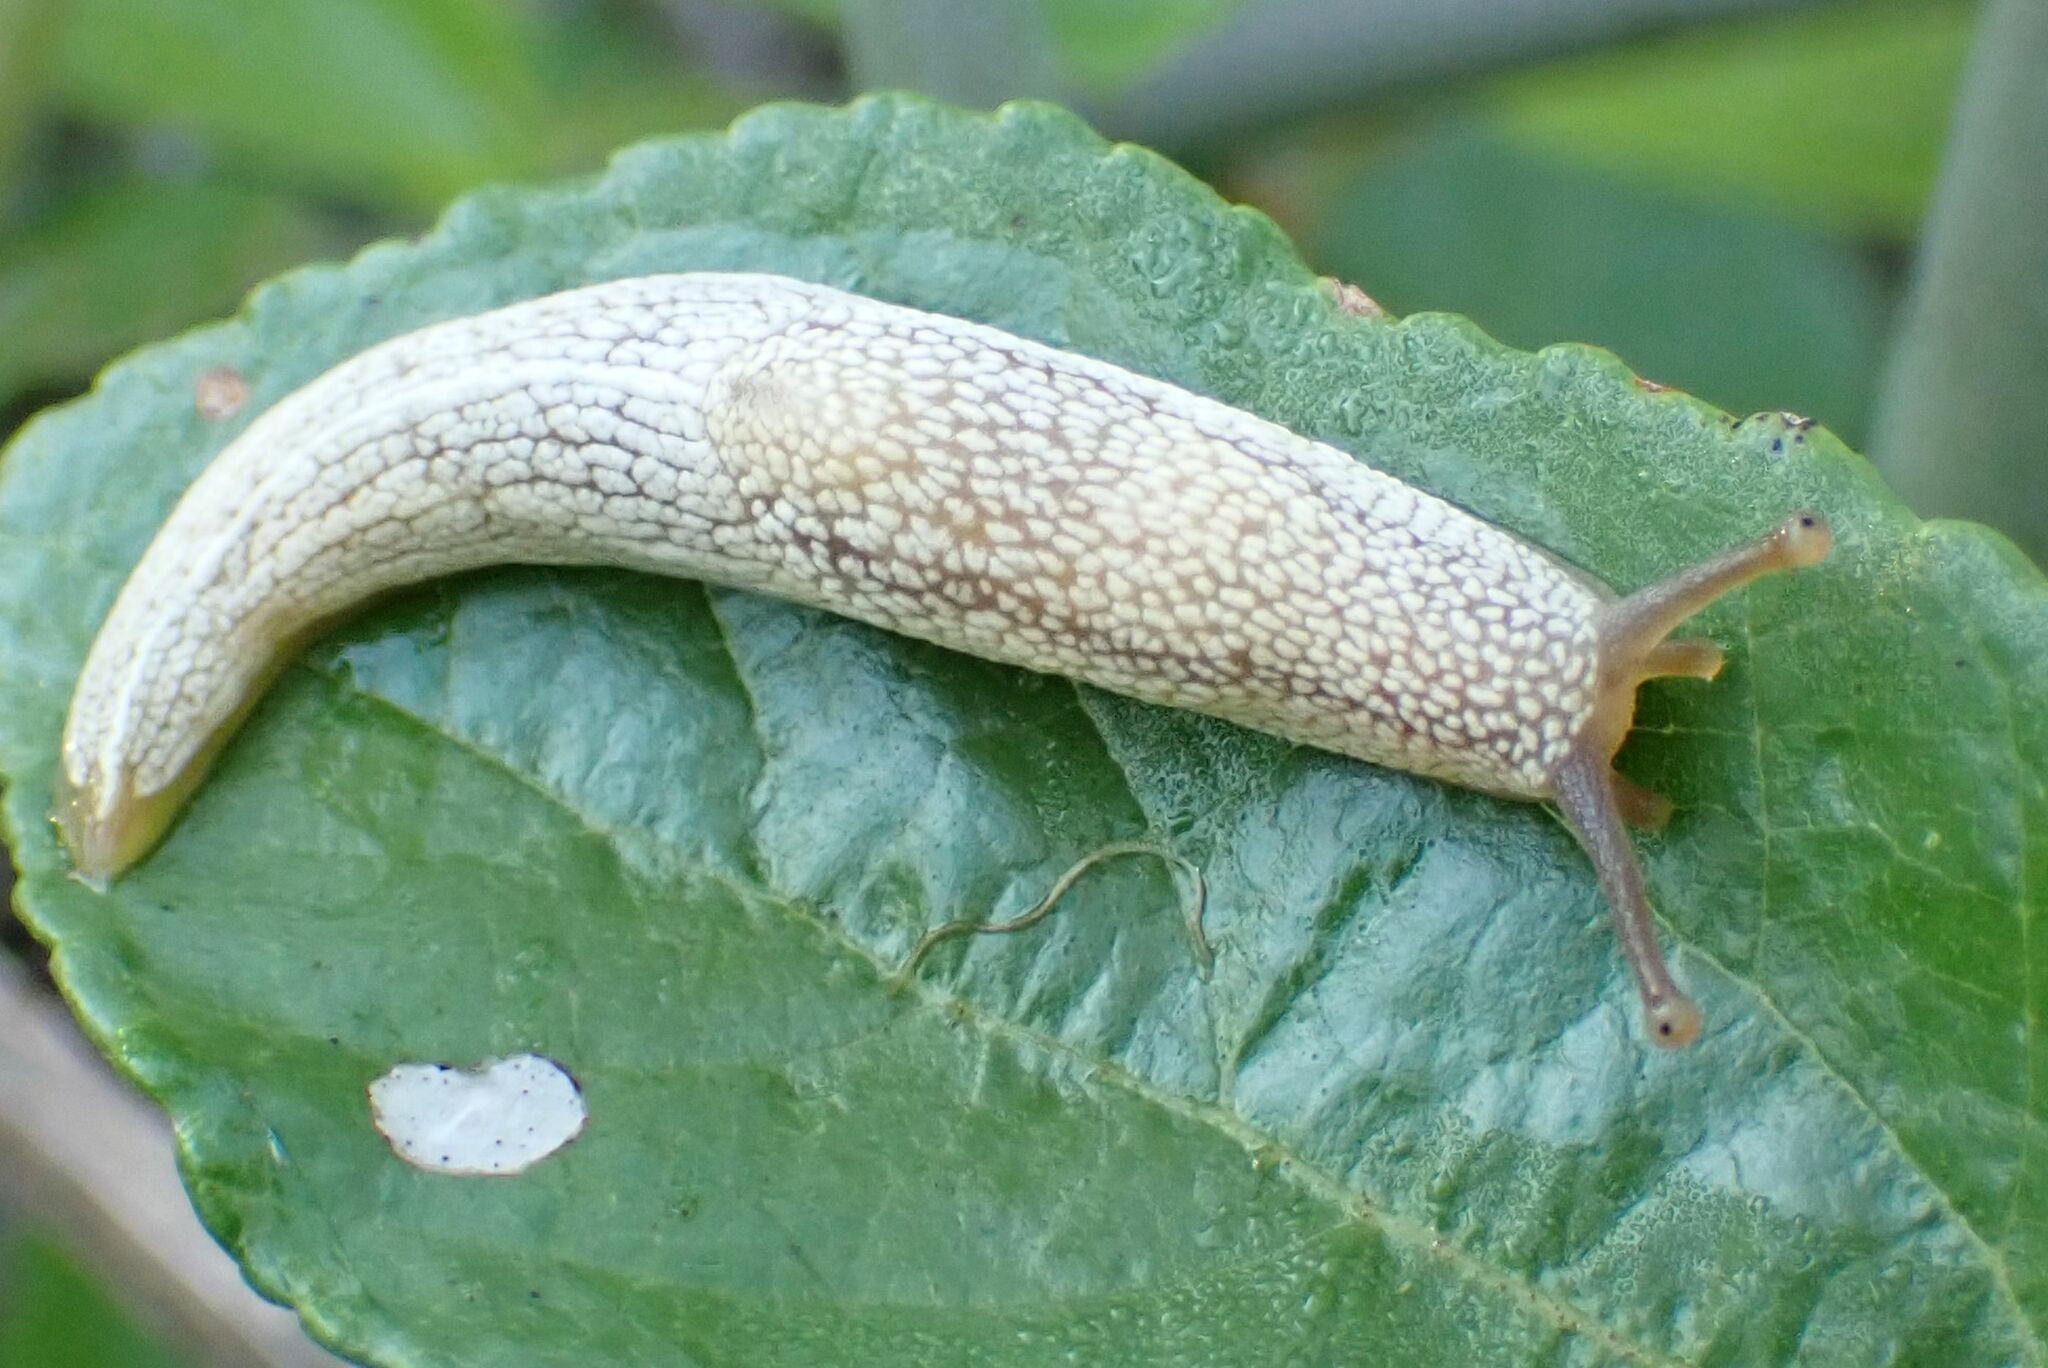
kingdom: Animalia
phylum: Mollusca
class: Gastropoda
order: Stylommatophora
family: Urocyclidae
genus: Elisolimax
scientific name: Elisolimax flavescens
